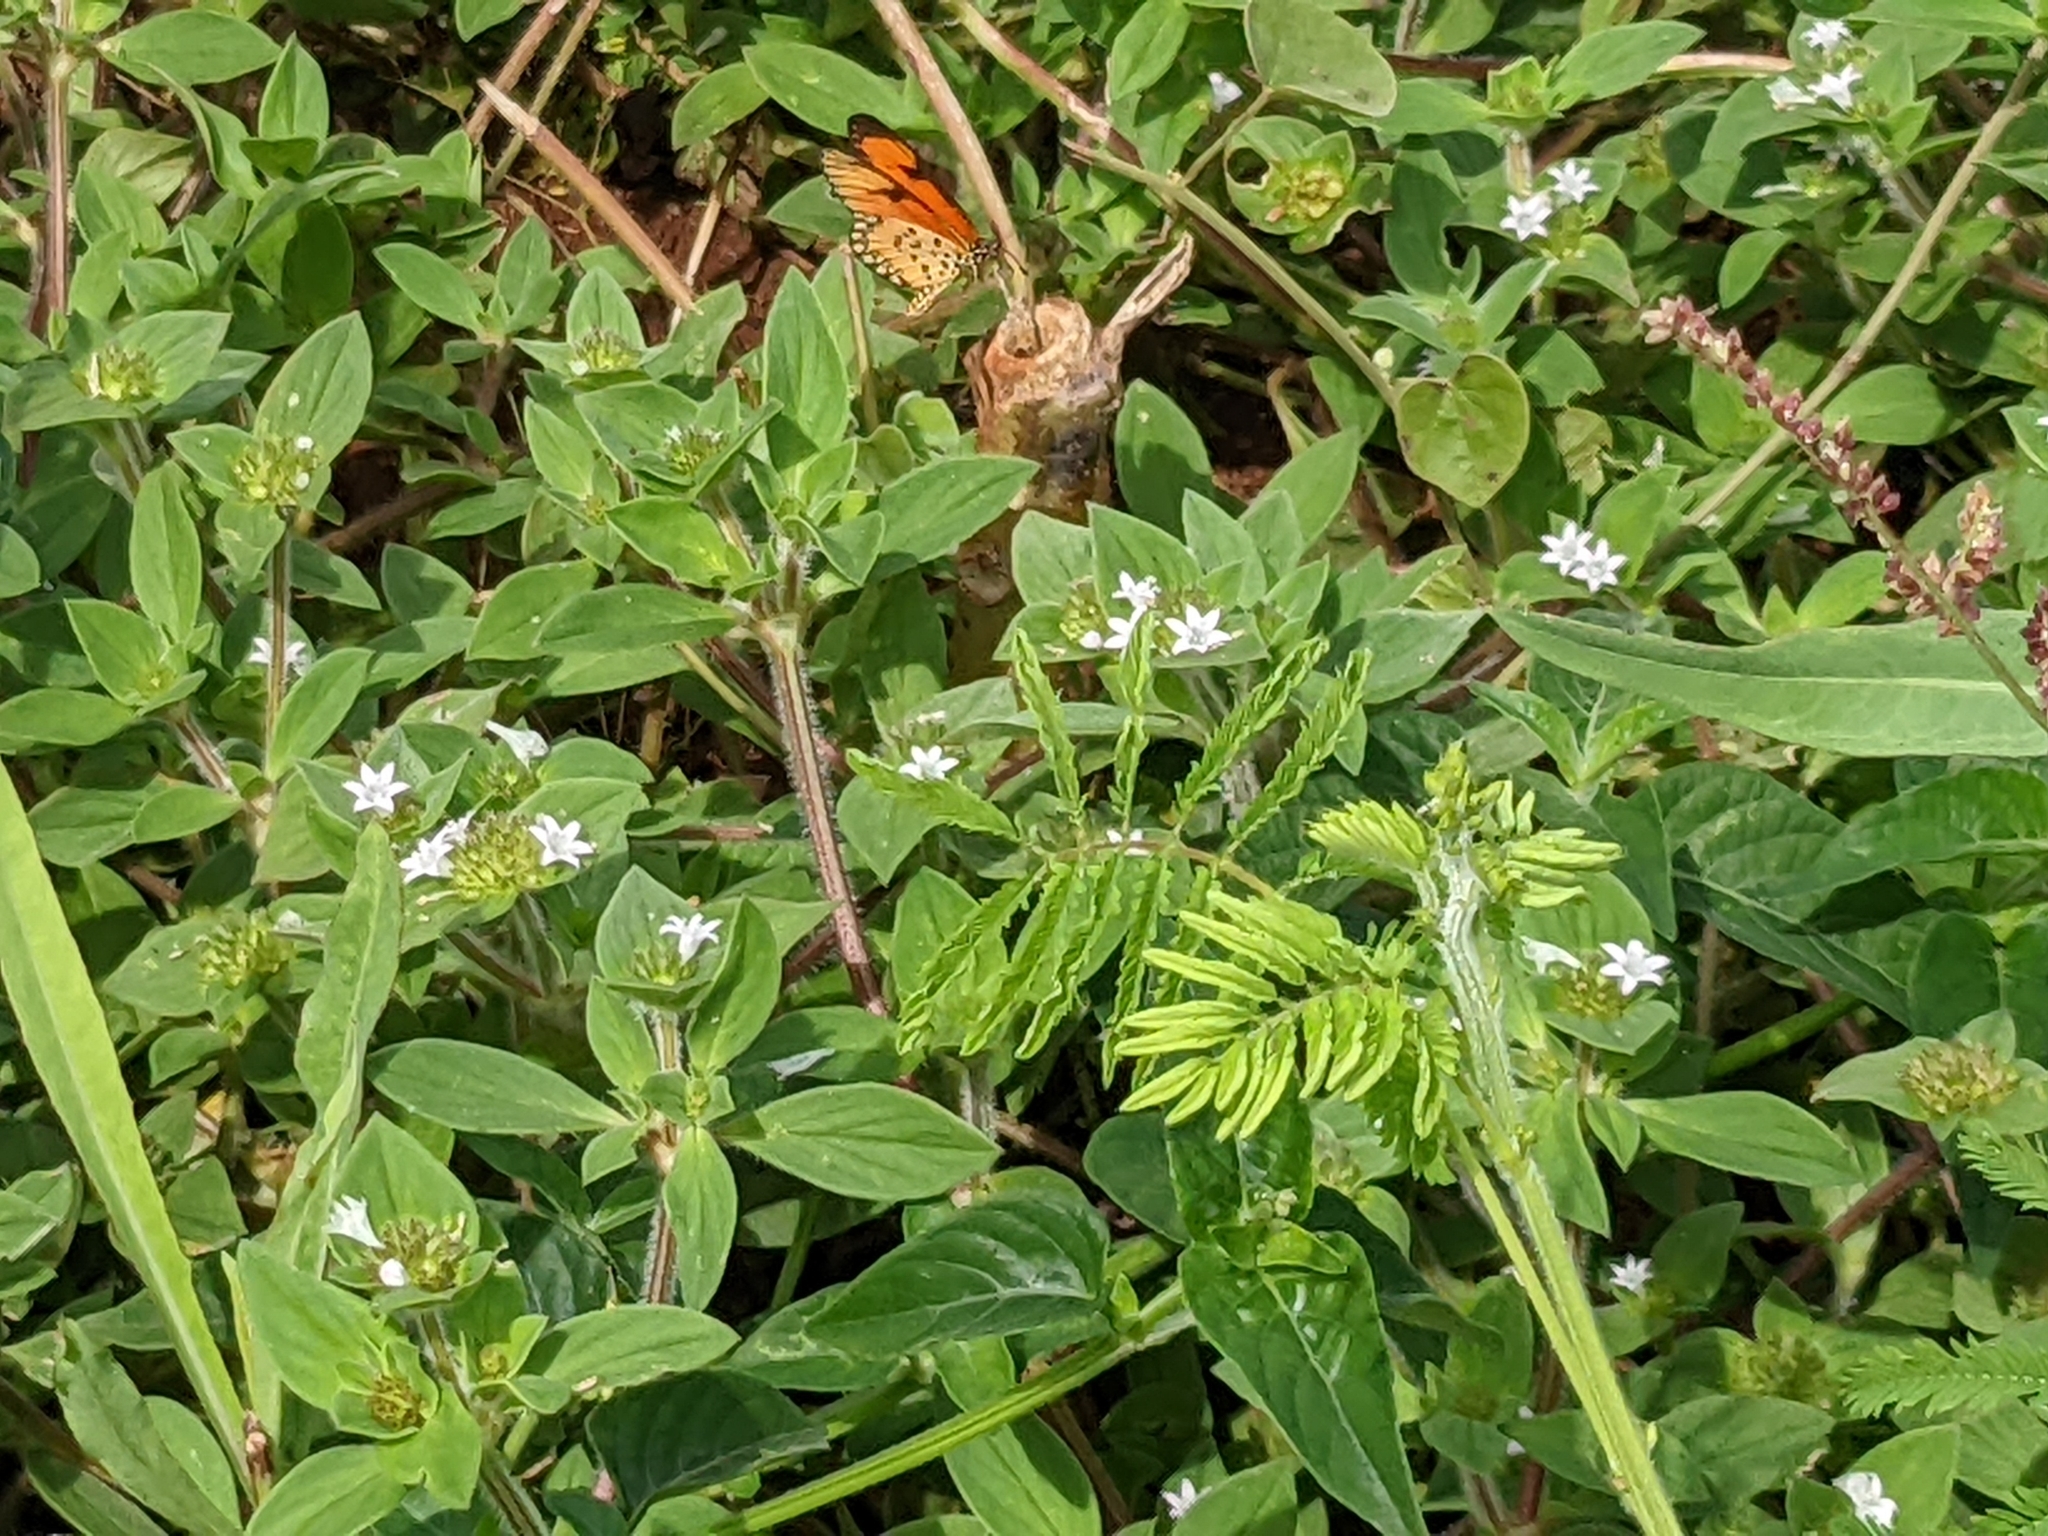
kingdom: Animalia
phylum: Arthropoda
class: Insecta
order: Lepidoptera
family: Nymphalidae
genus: Acraea
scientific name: Acraea Telchinia serena
